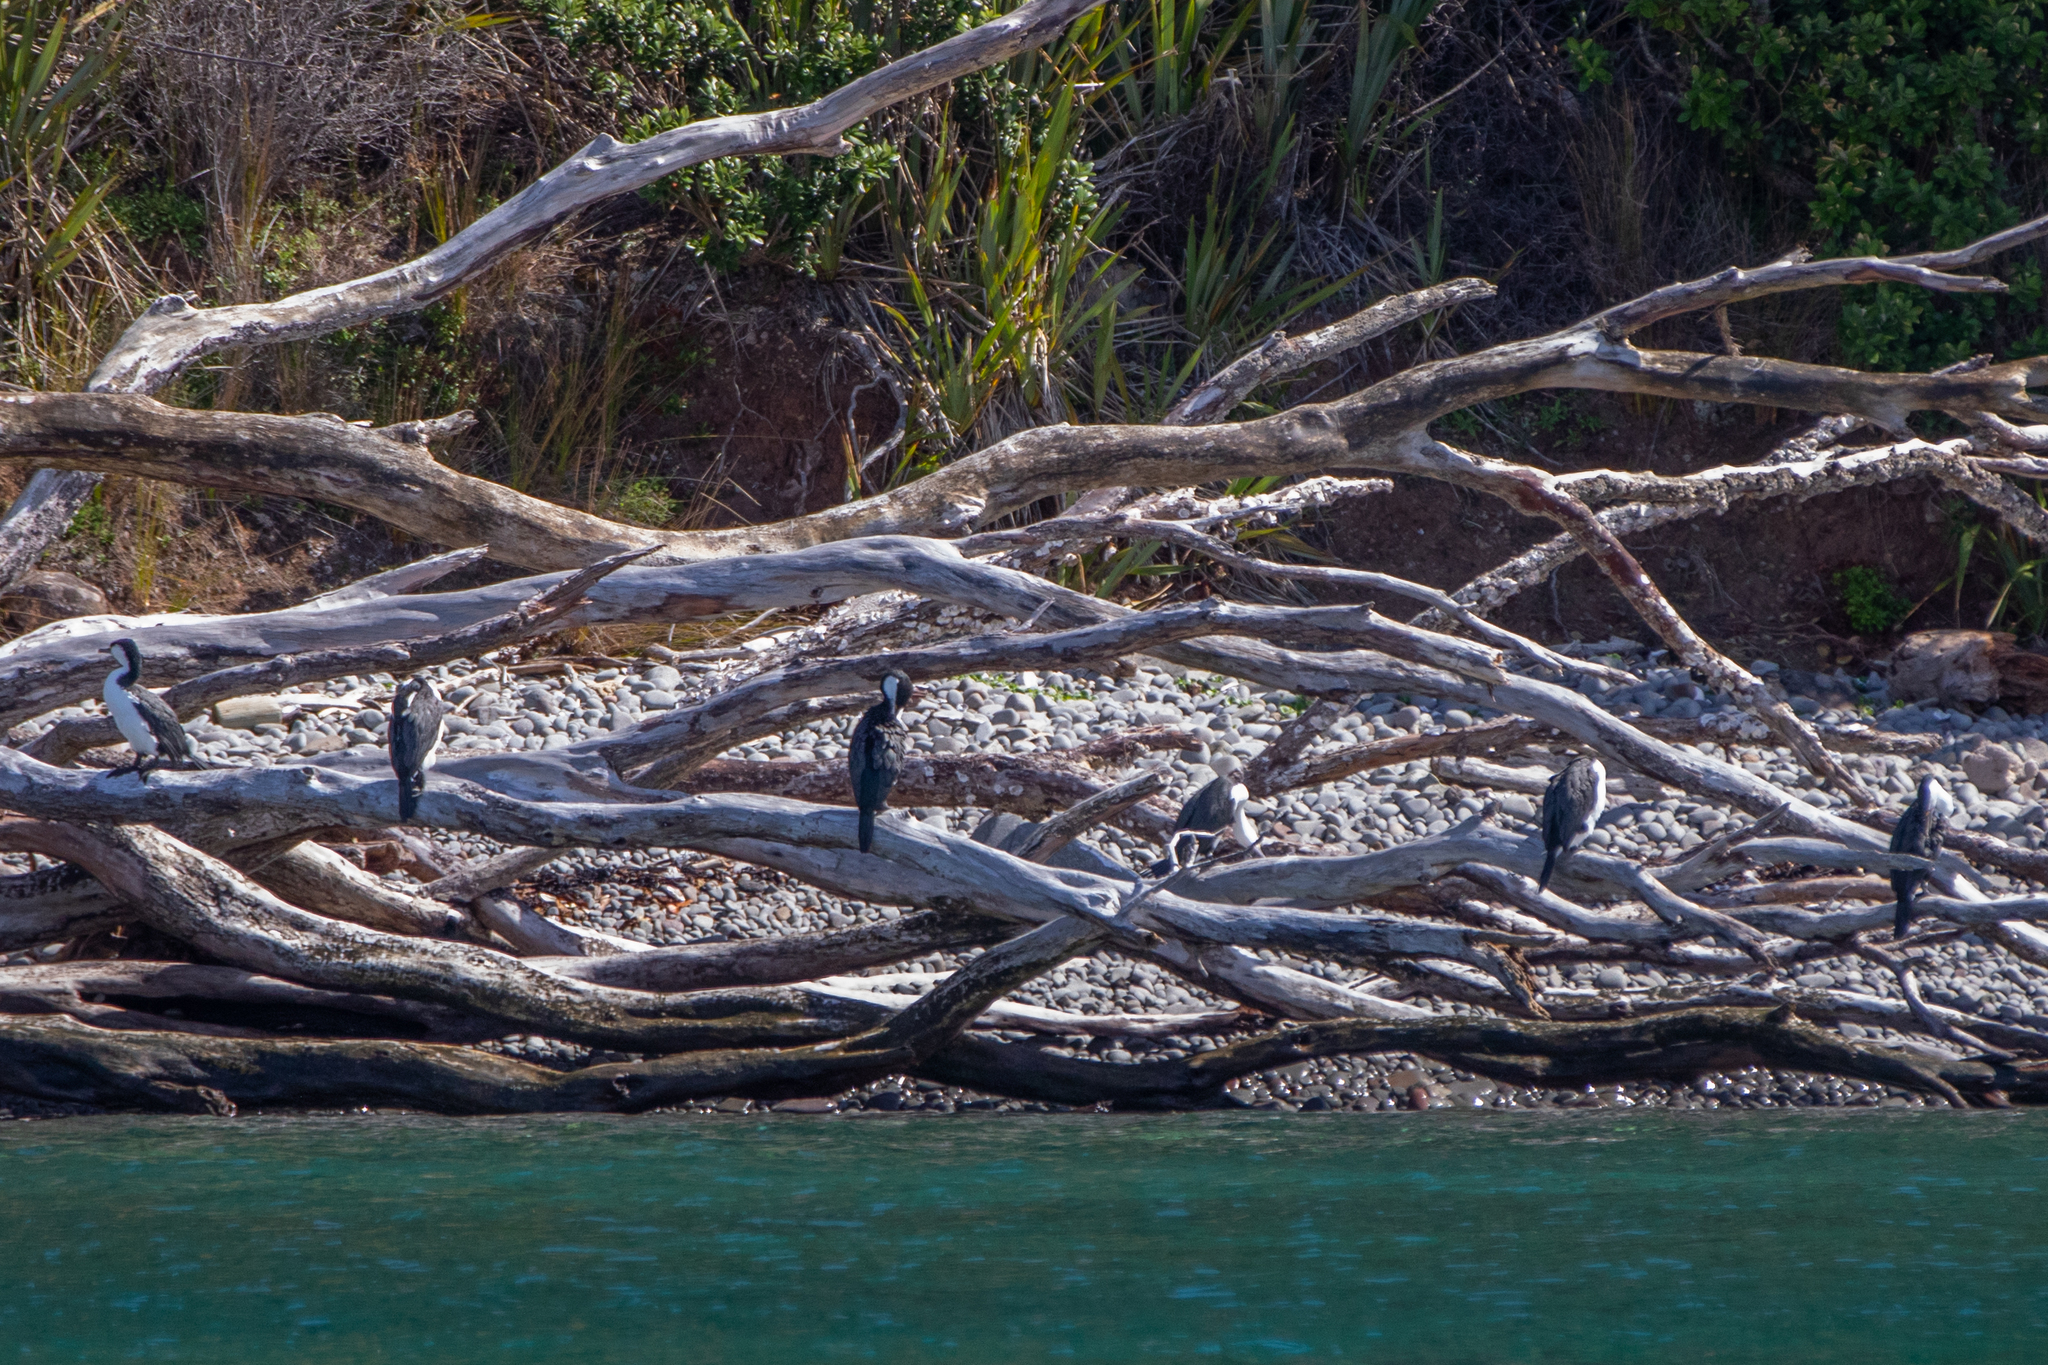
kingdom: Animalia
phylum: Chordata
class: Aves
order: Suliformes
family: Phalacrocoracidae
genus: Phalacrocorax
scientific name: Phalacrocorax varius
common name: Pied cormorant
